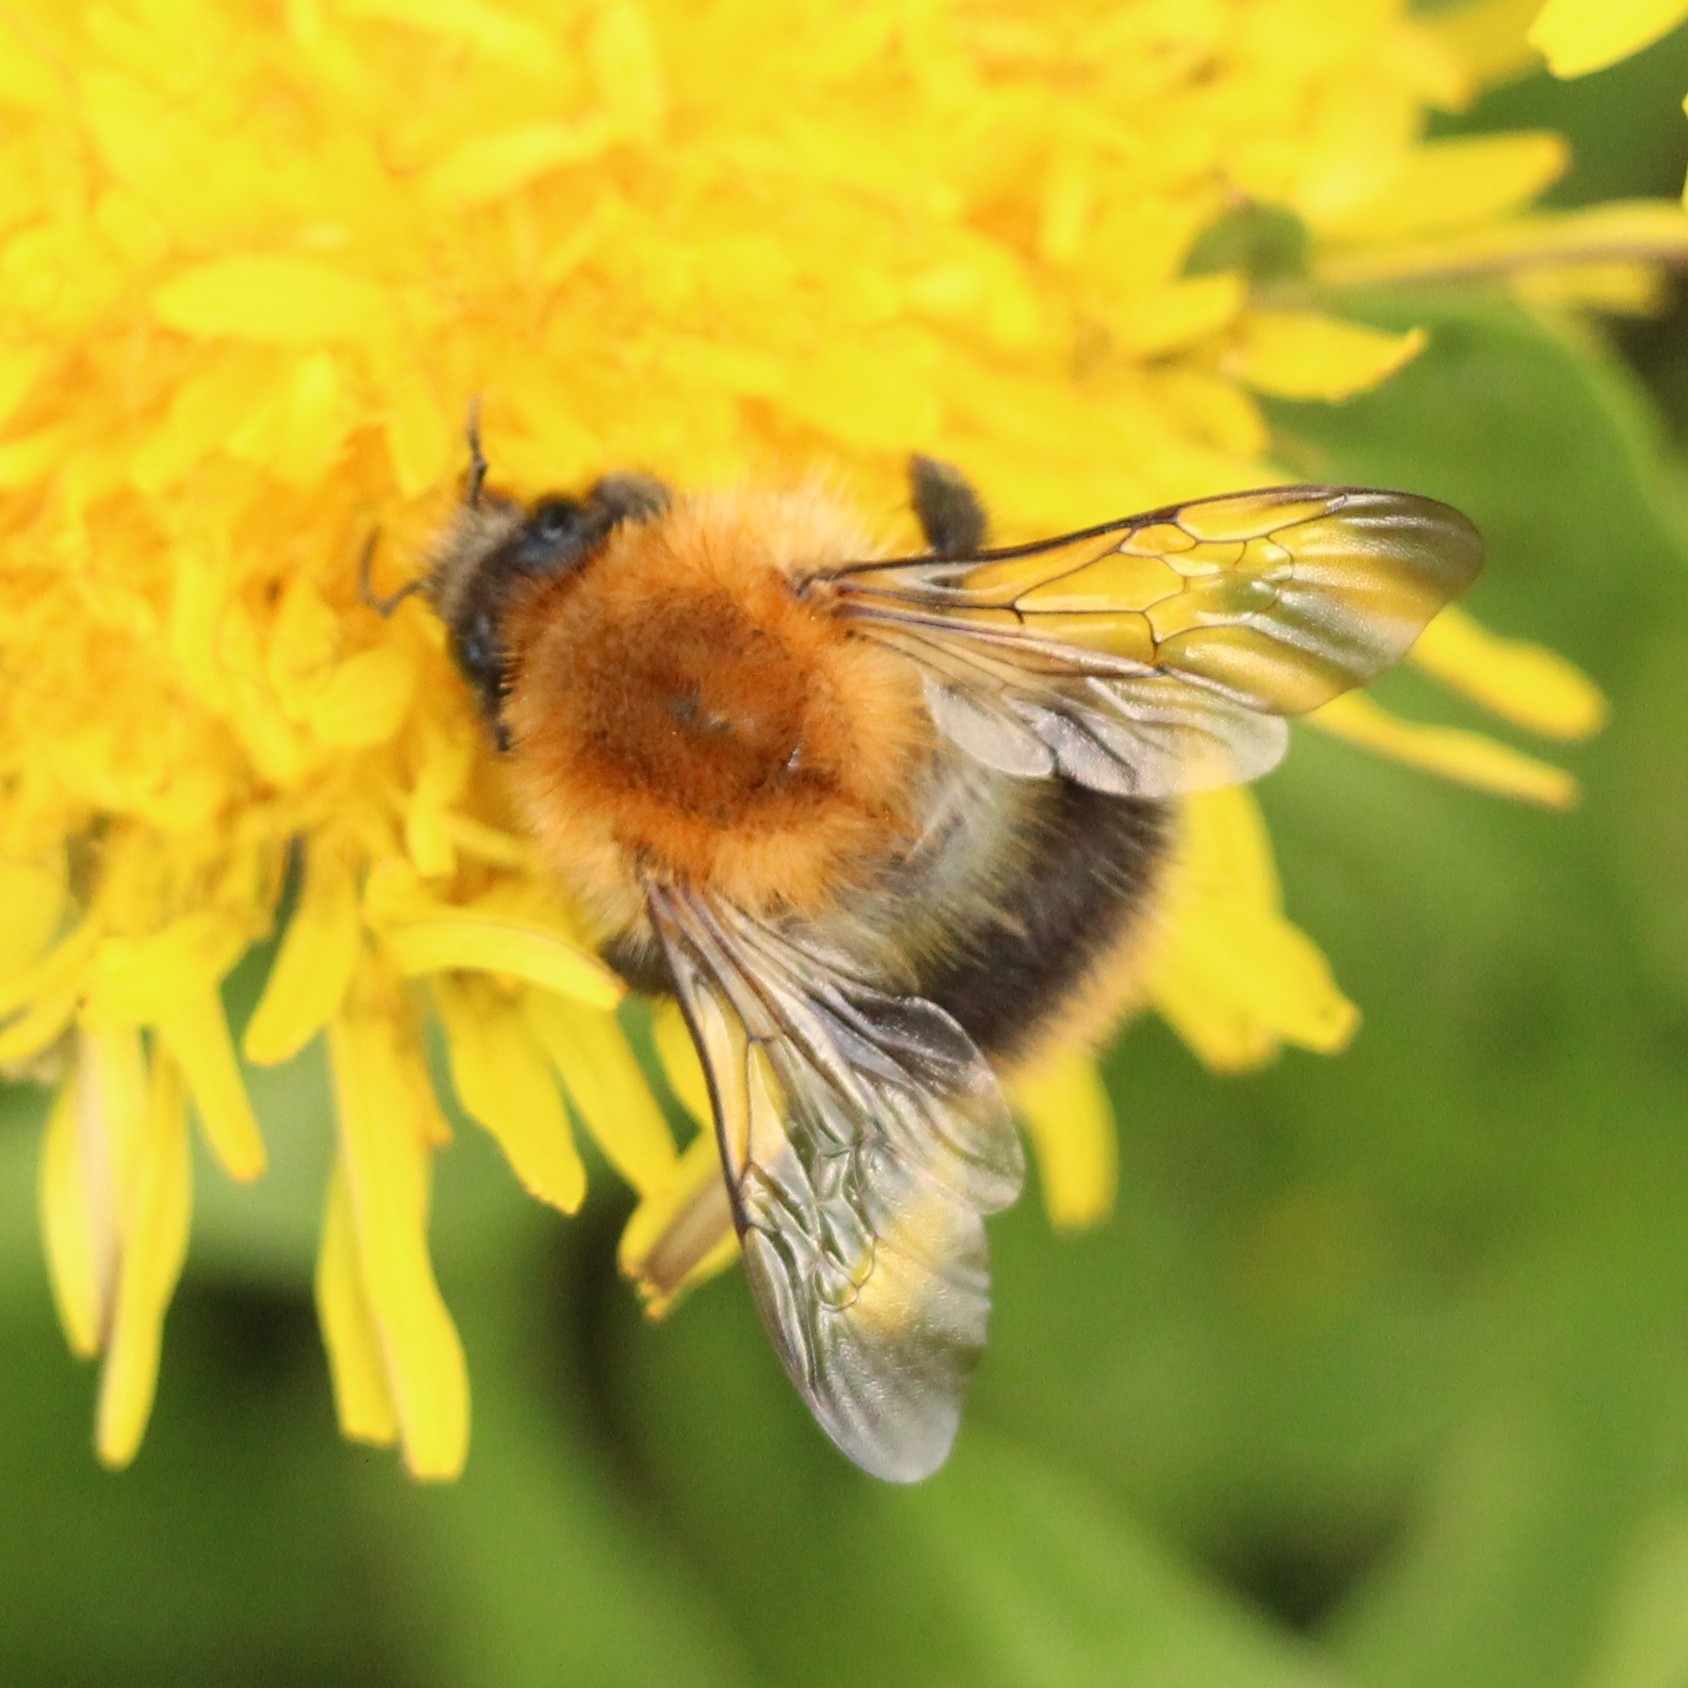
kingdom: Animalia
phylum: Arthropoda
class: Insecta
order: Hymenoptera
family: Apidae
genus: Bombus
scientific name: Bombus pascuorum
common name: Common carder bee
